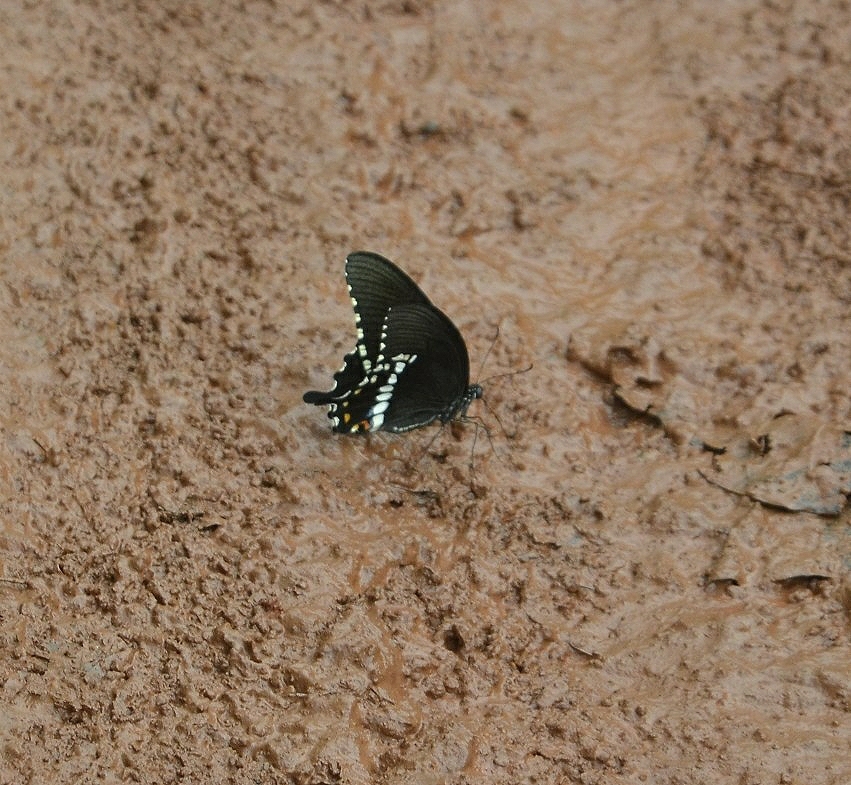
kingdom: Animalia
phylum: Arthropoda
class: Insecta
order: Lepidoptera
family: Papilionidae
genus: Papilio
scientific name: Papilio polytes
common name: Common mormon
